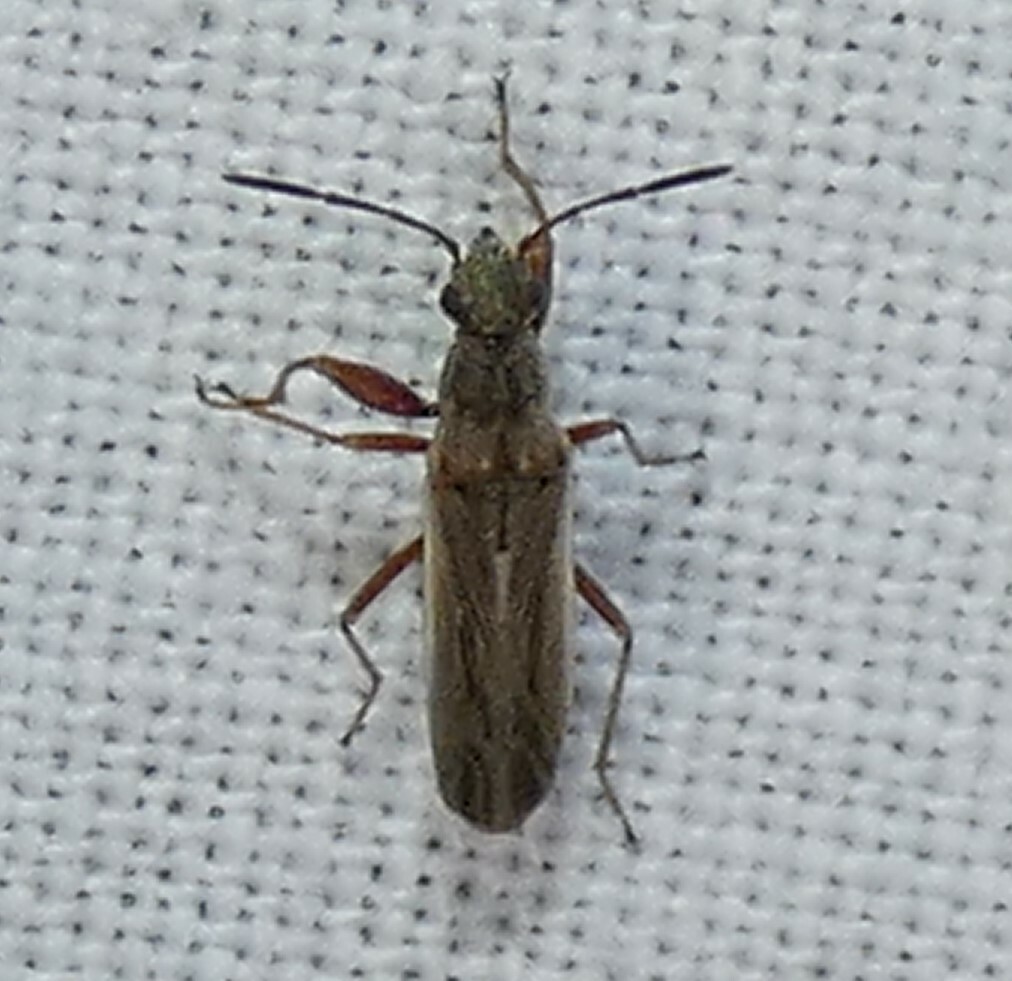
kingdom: Animalia
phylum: Arthropoda
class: Insecta
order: Hemiptera
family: Rhyparochromidae
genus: Paromius
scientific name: Paromius longulus
